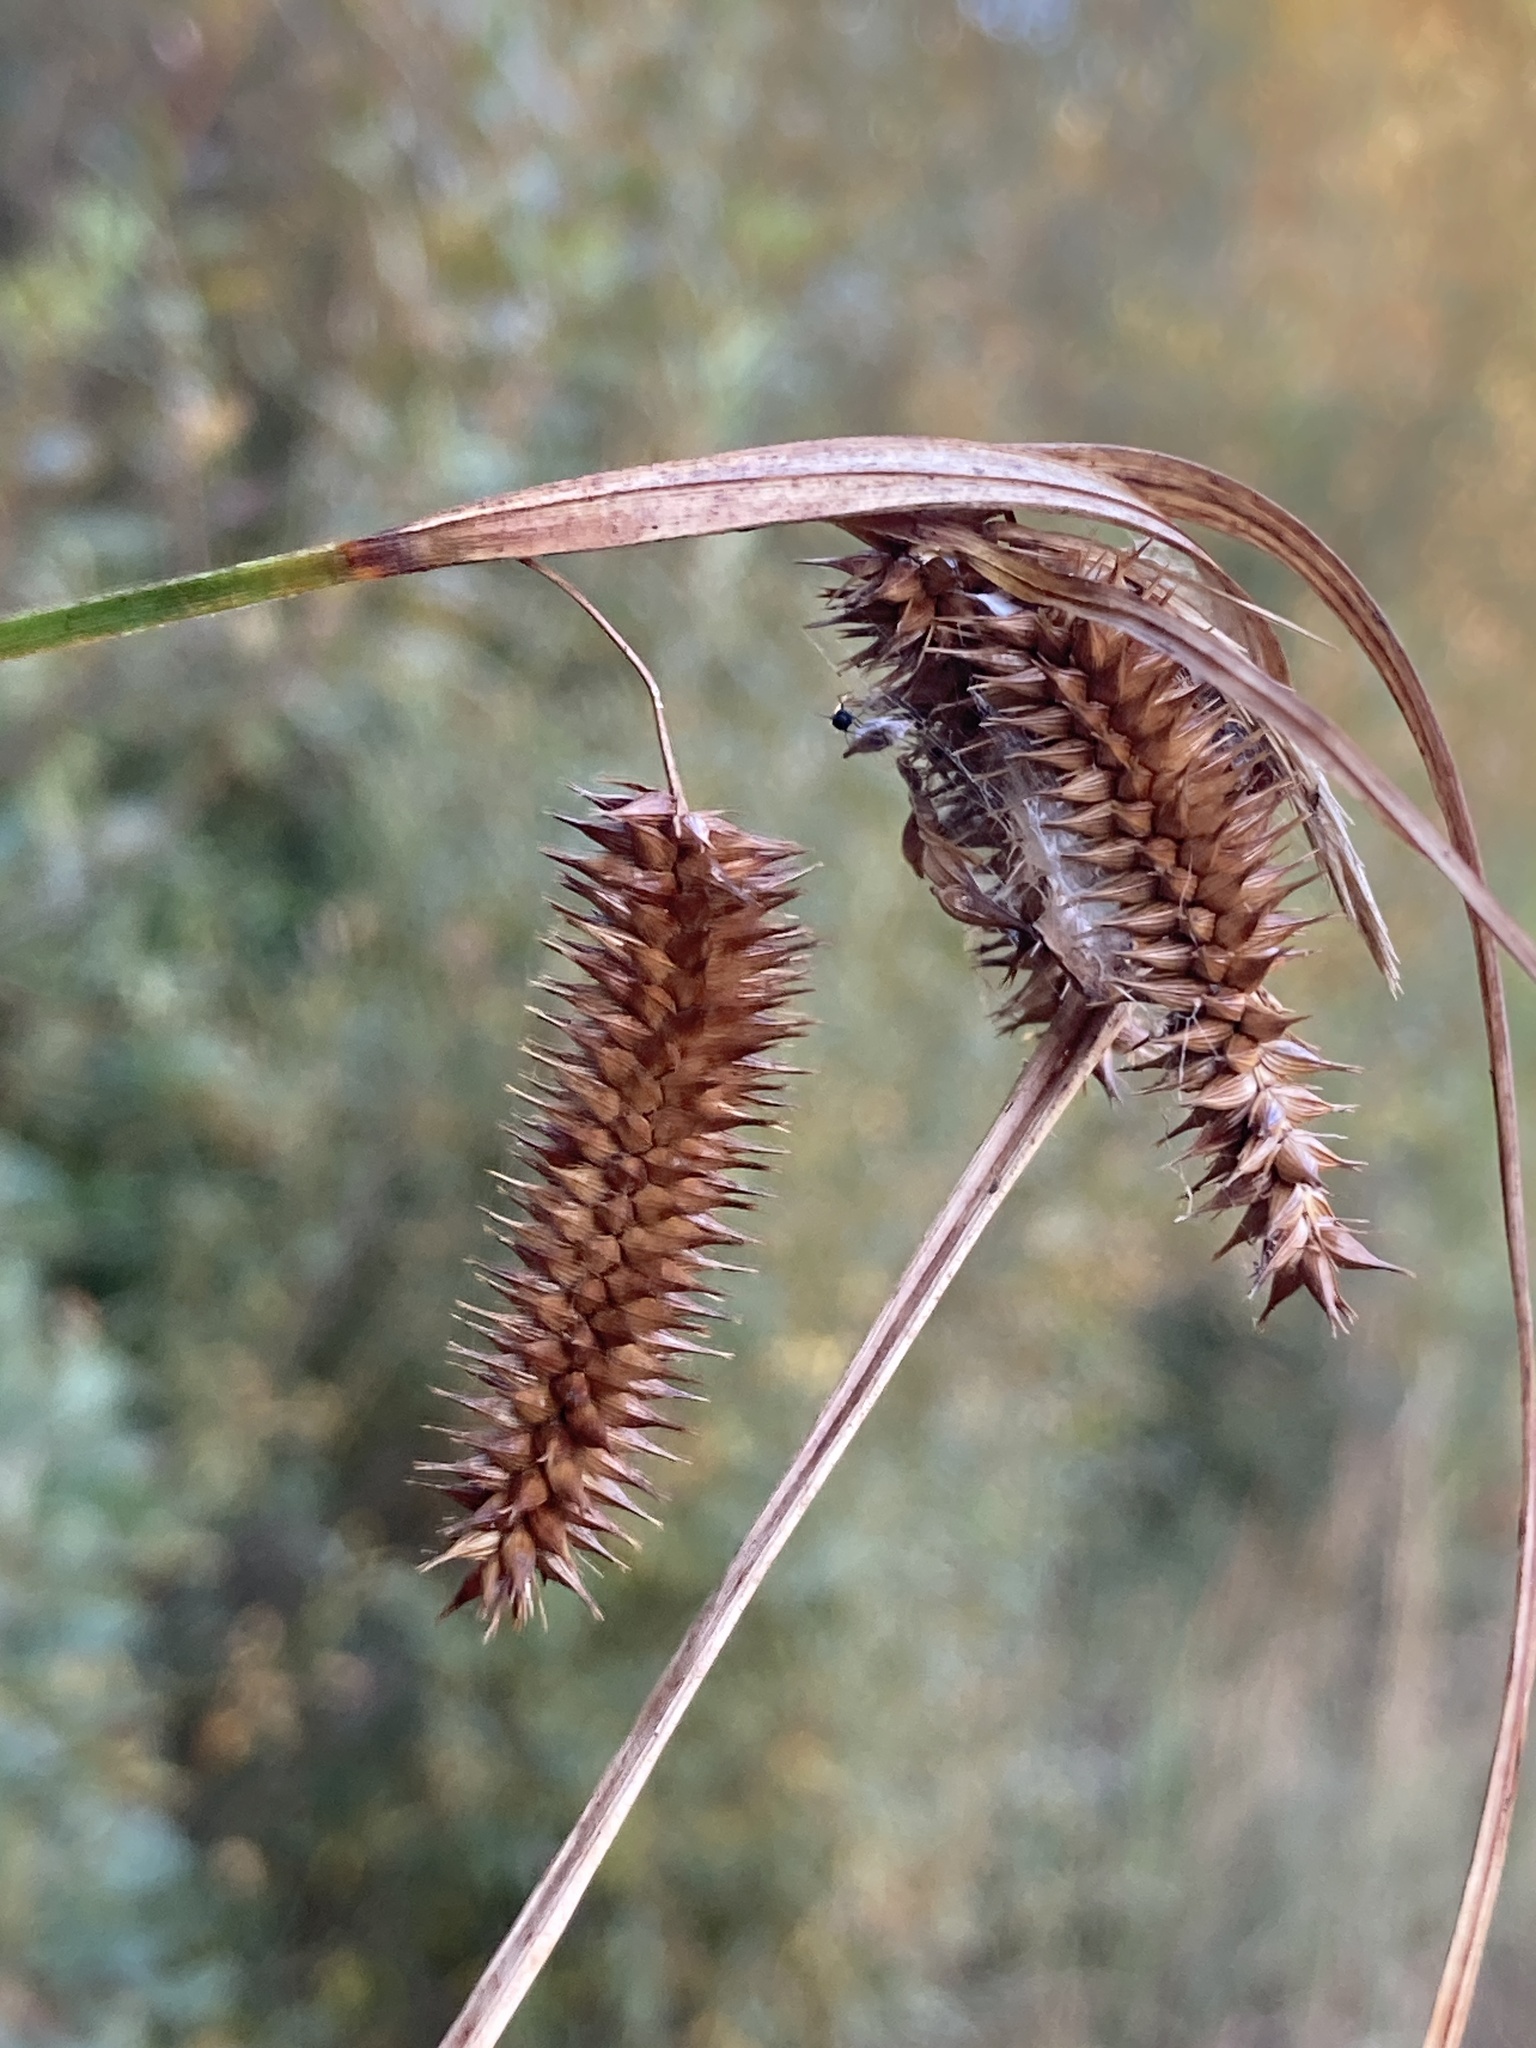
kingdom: Plantae
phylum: Tracheophyta
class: Liliopsida
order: Poales
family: Cyperaceae
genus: Carex
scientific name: Carex pseudocyperus
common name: Cyperus sedge
